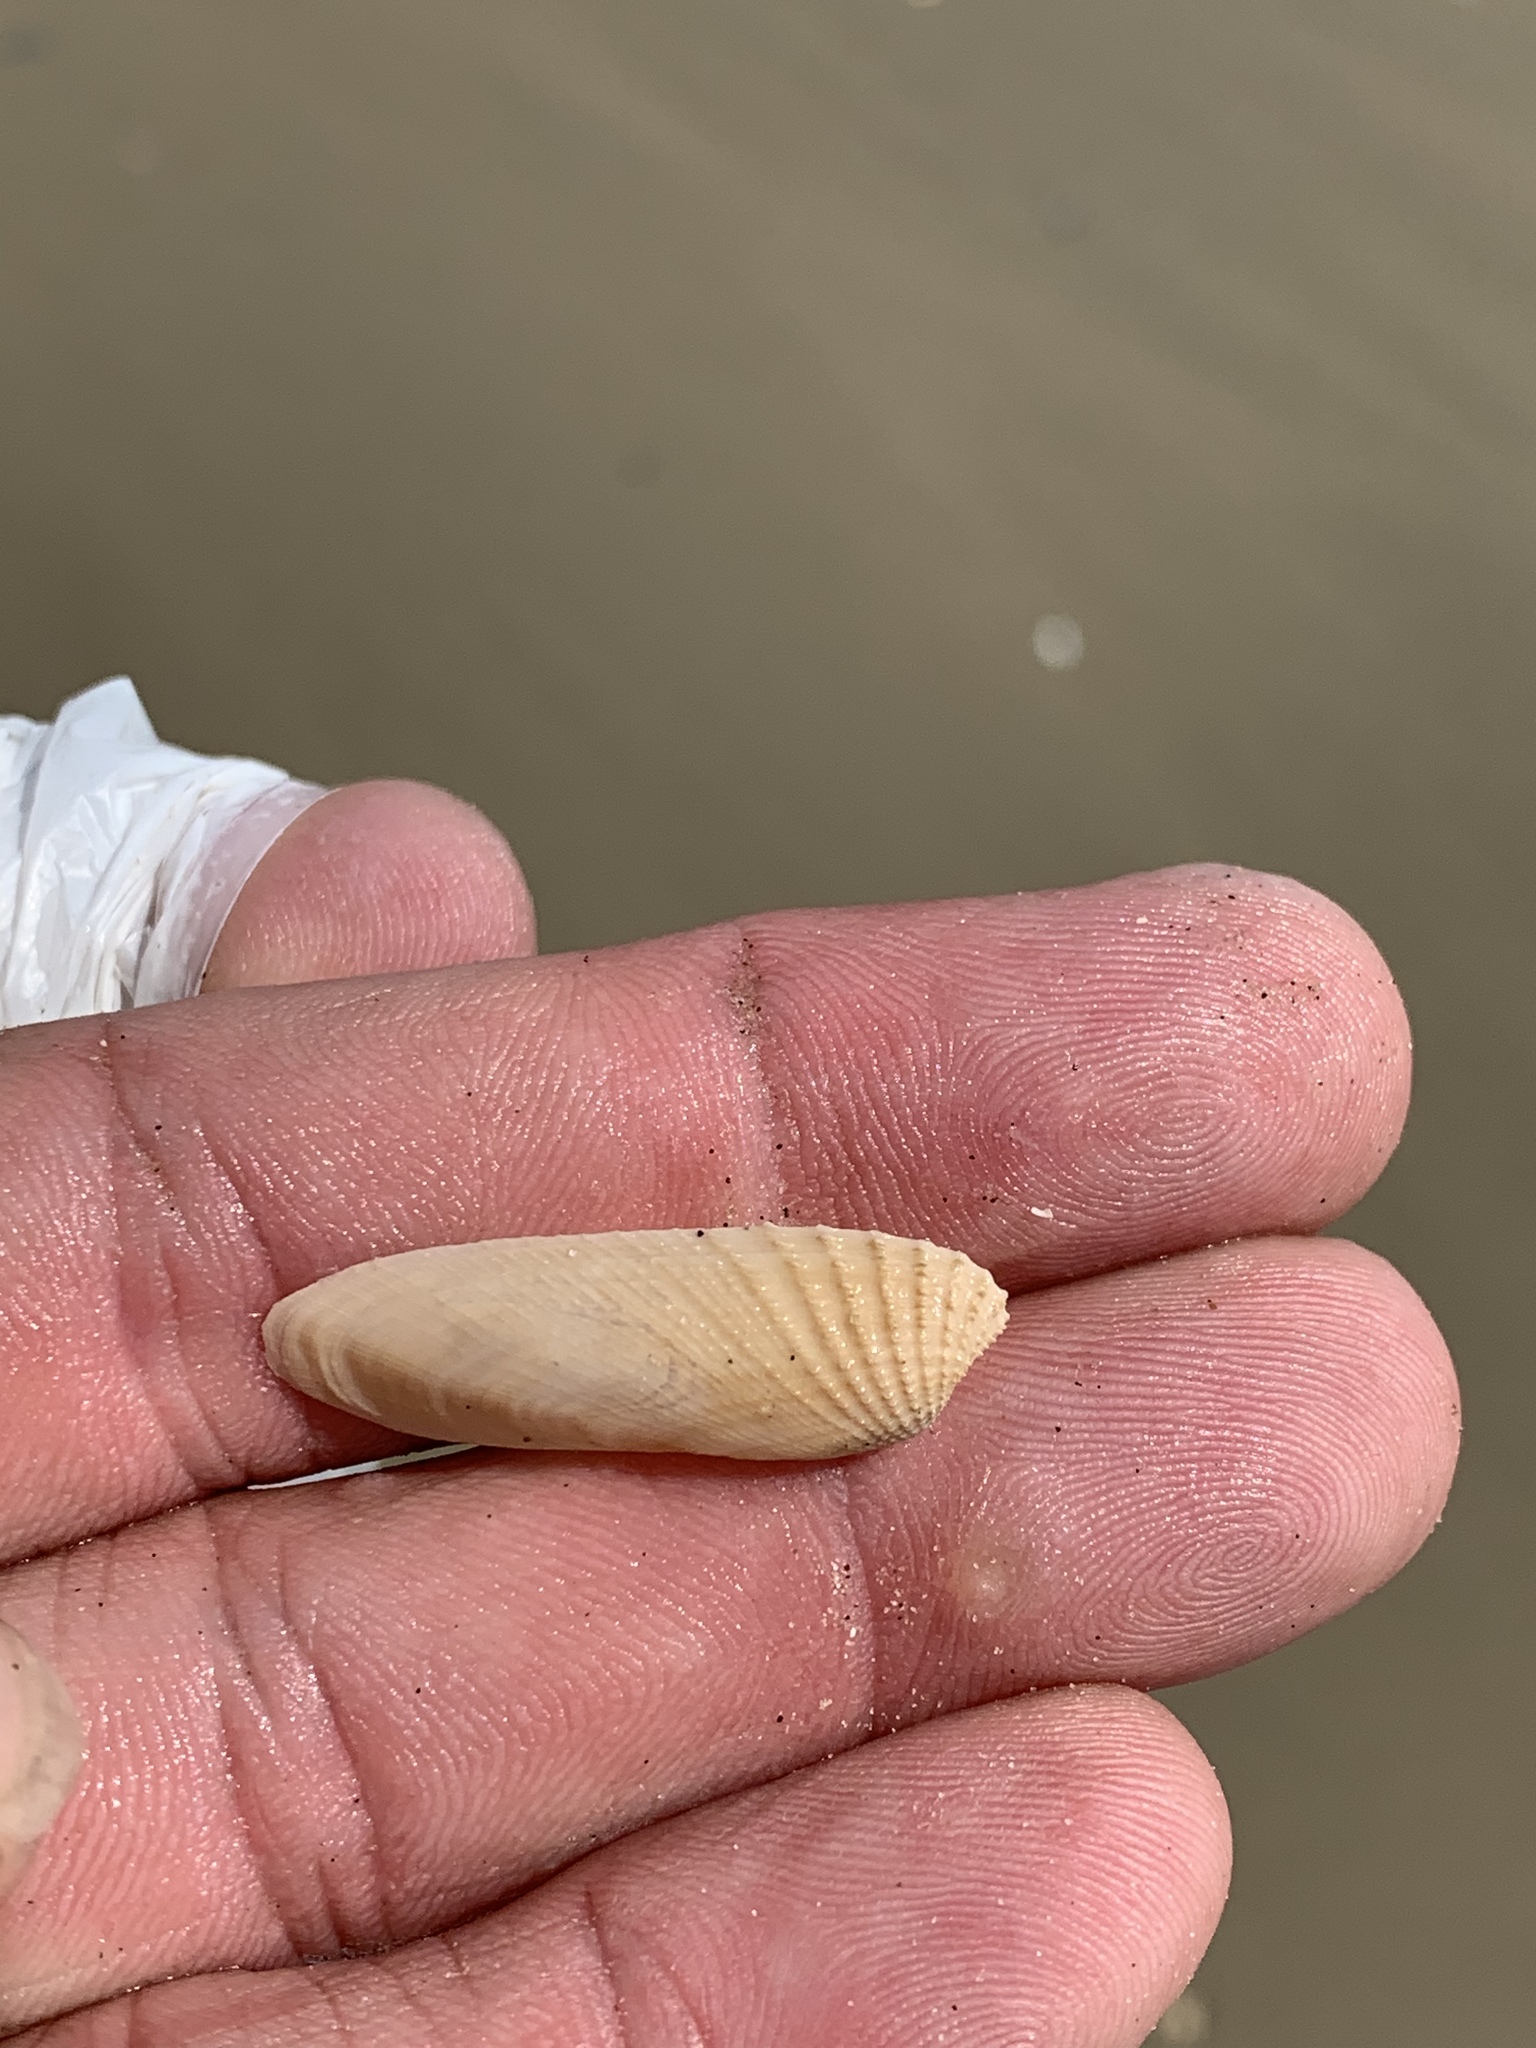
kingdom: Animalia
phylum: Mollusca
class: Bivalvia
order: Venerida
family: Veneridae
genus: Petricolaria
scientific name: Petricolaria pholadiformis
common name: American piddock
